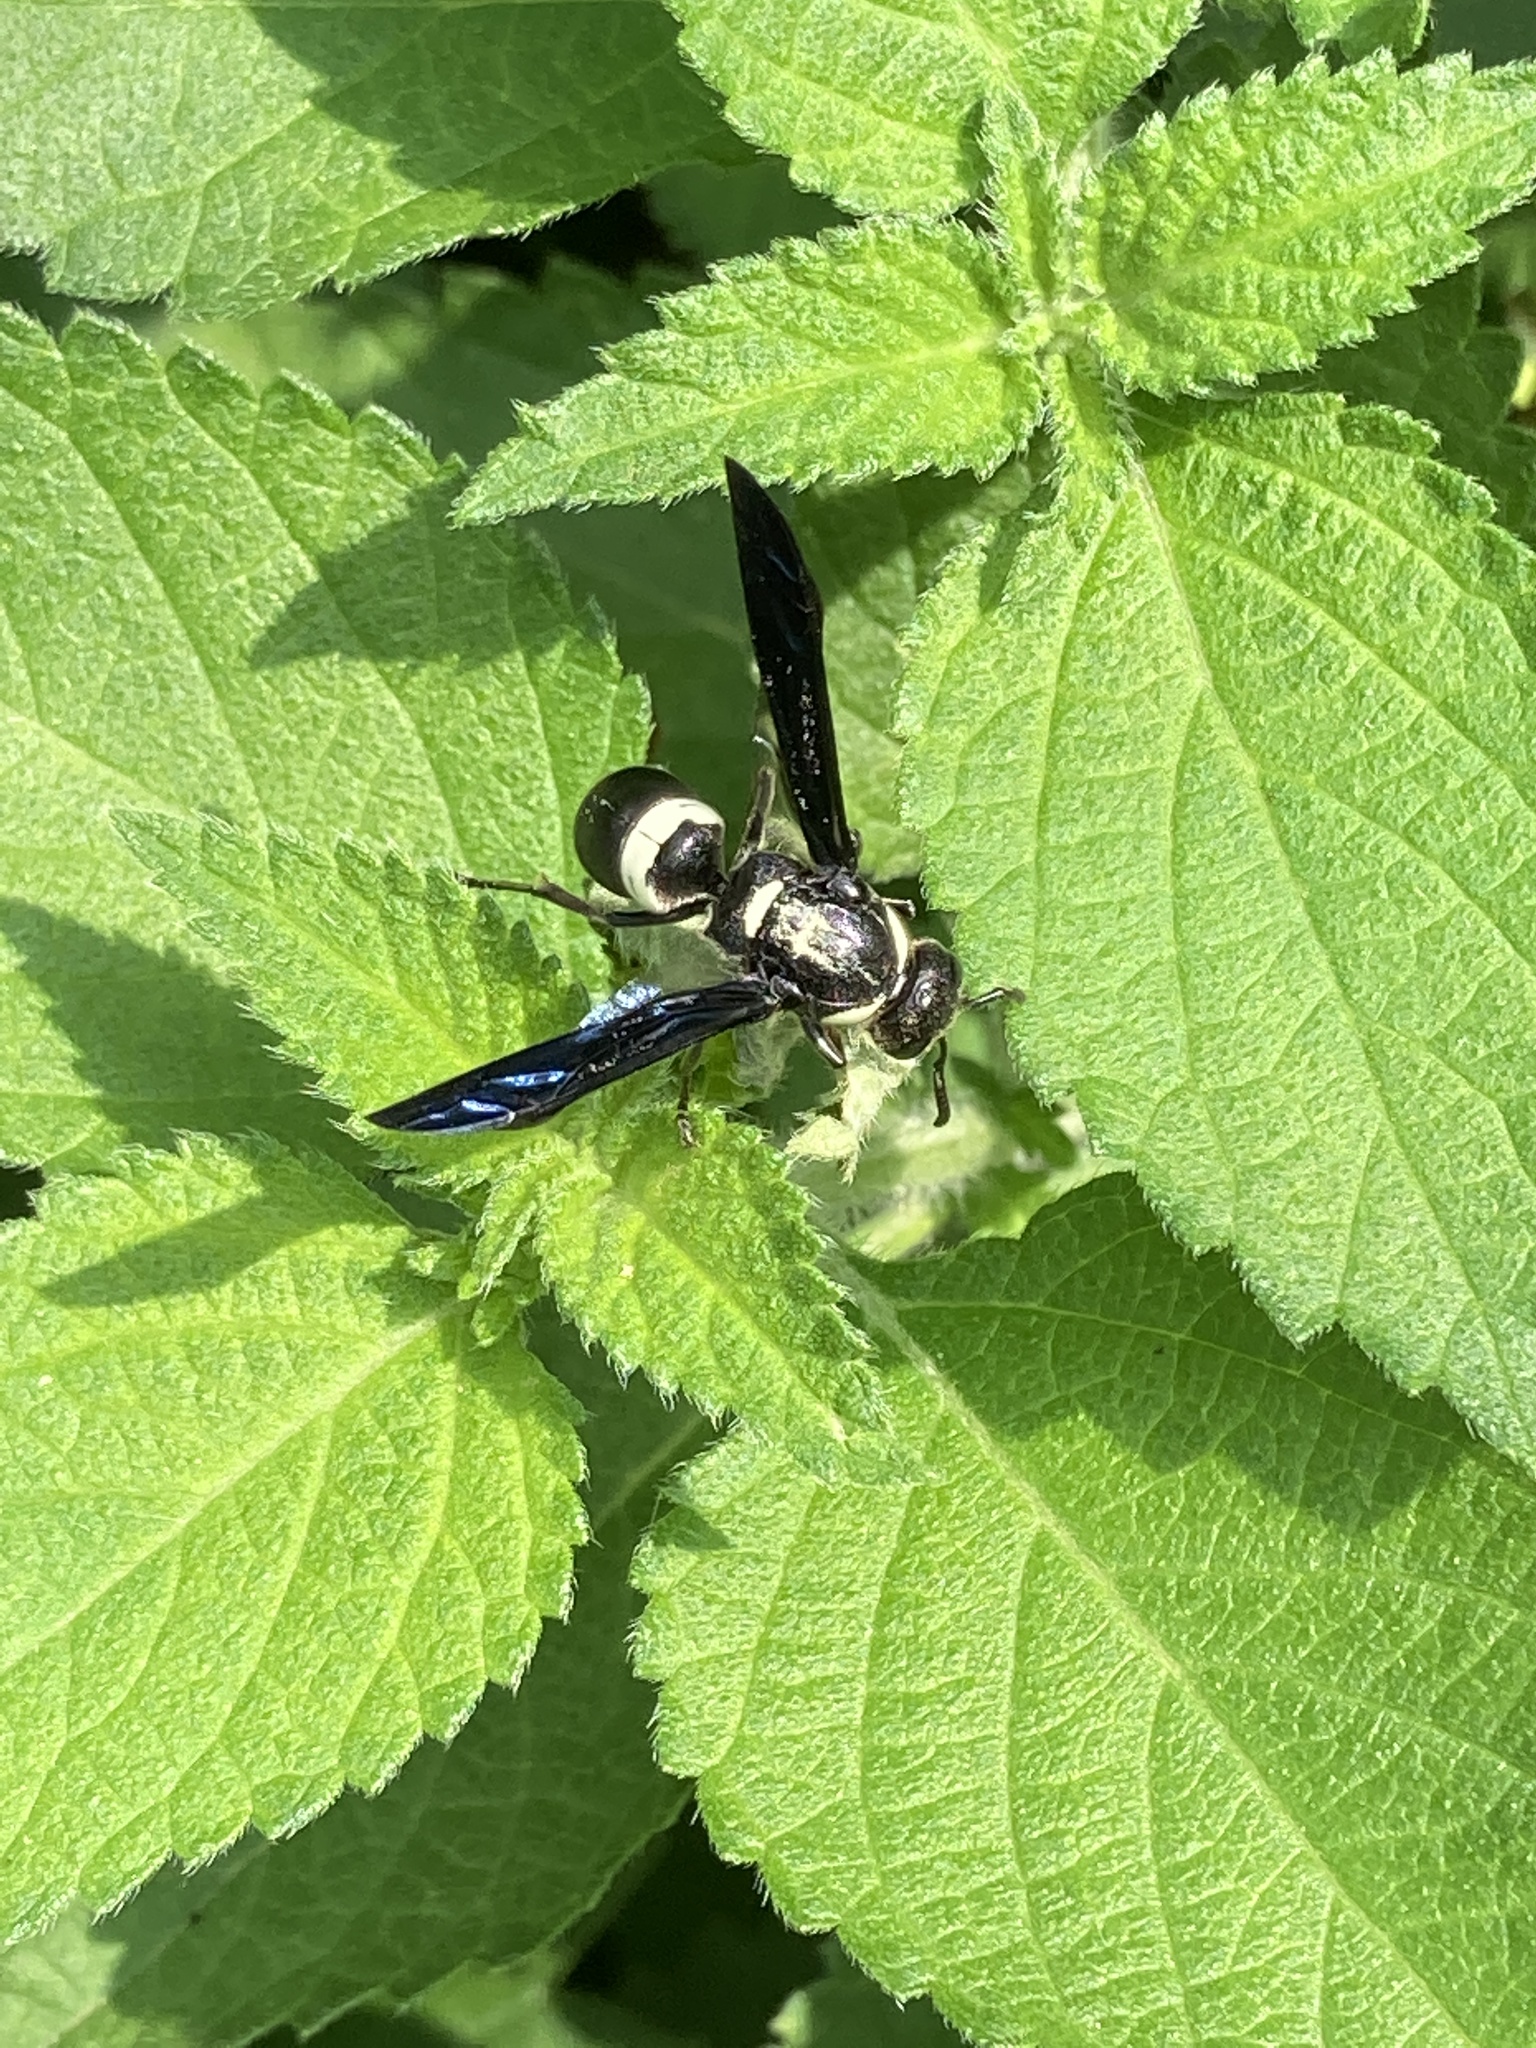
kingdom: Animalia
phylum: Arthropoda
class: Insecta
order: Hymenoptera
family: Eumenidae
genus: Monobia
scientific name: Monobia quadridens
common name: Four-toothed mason wasp
